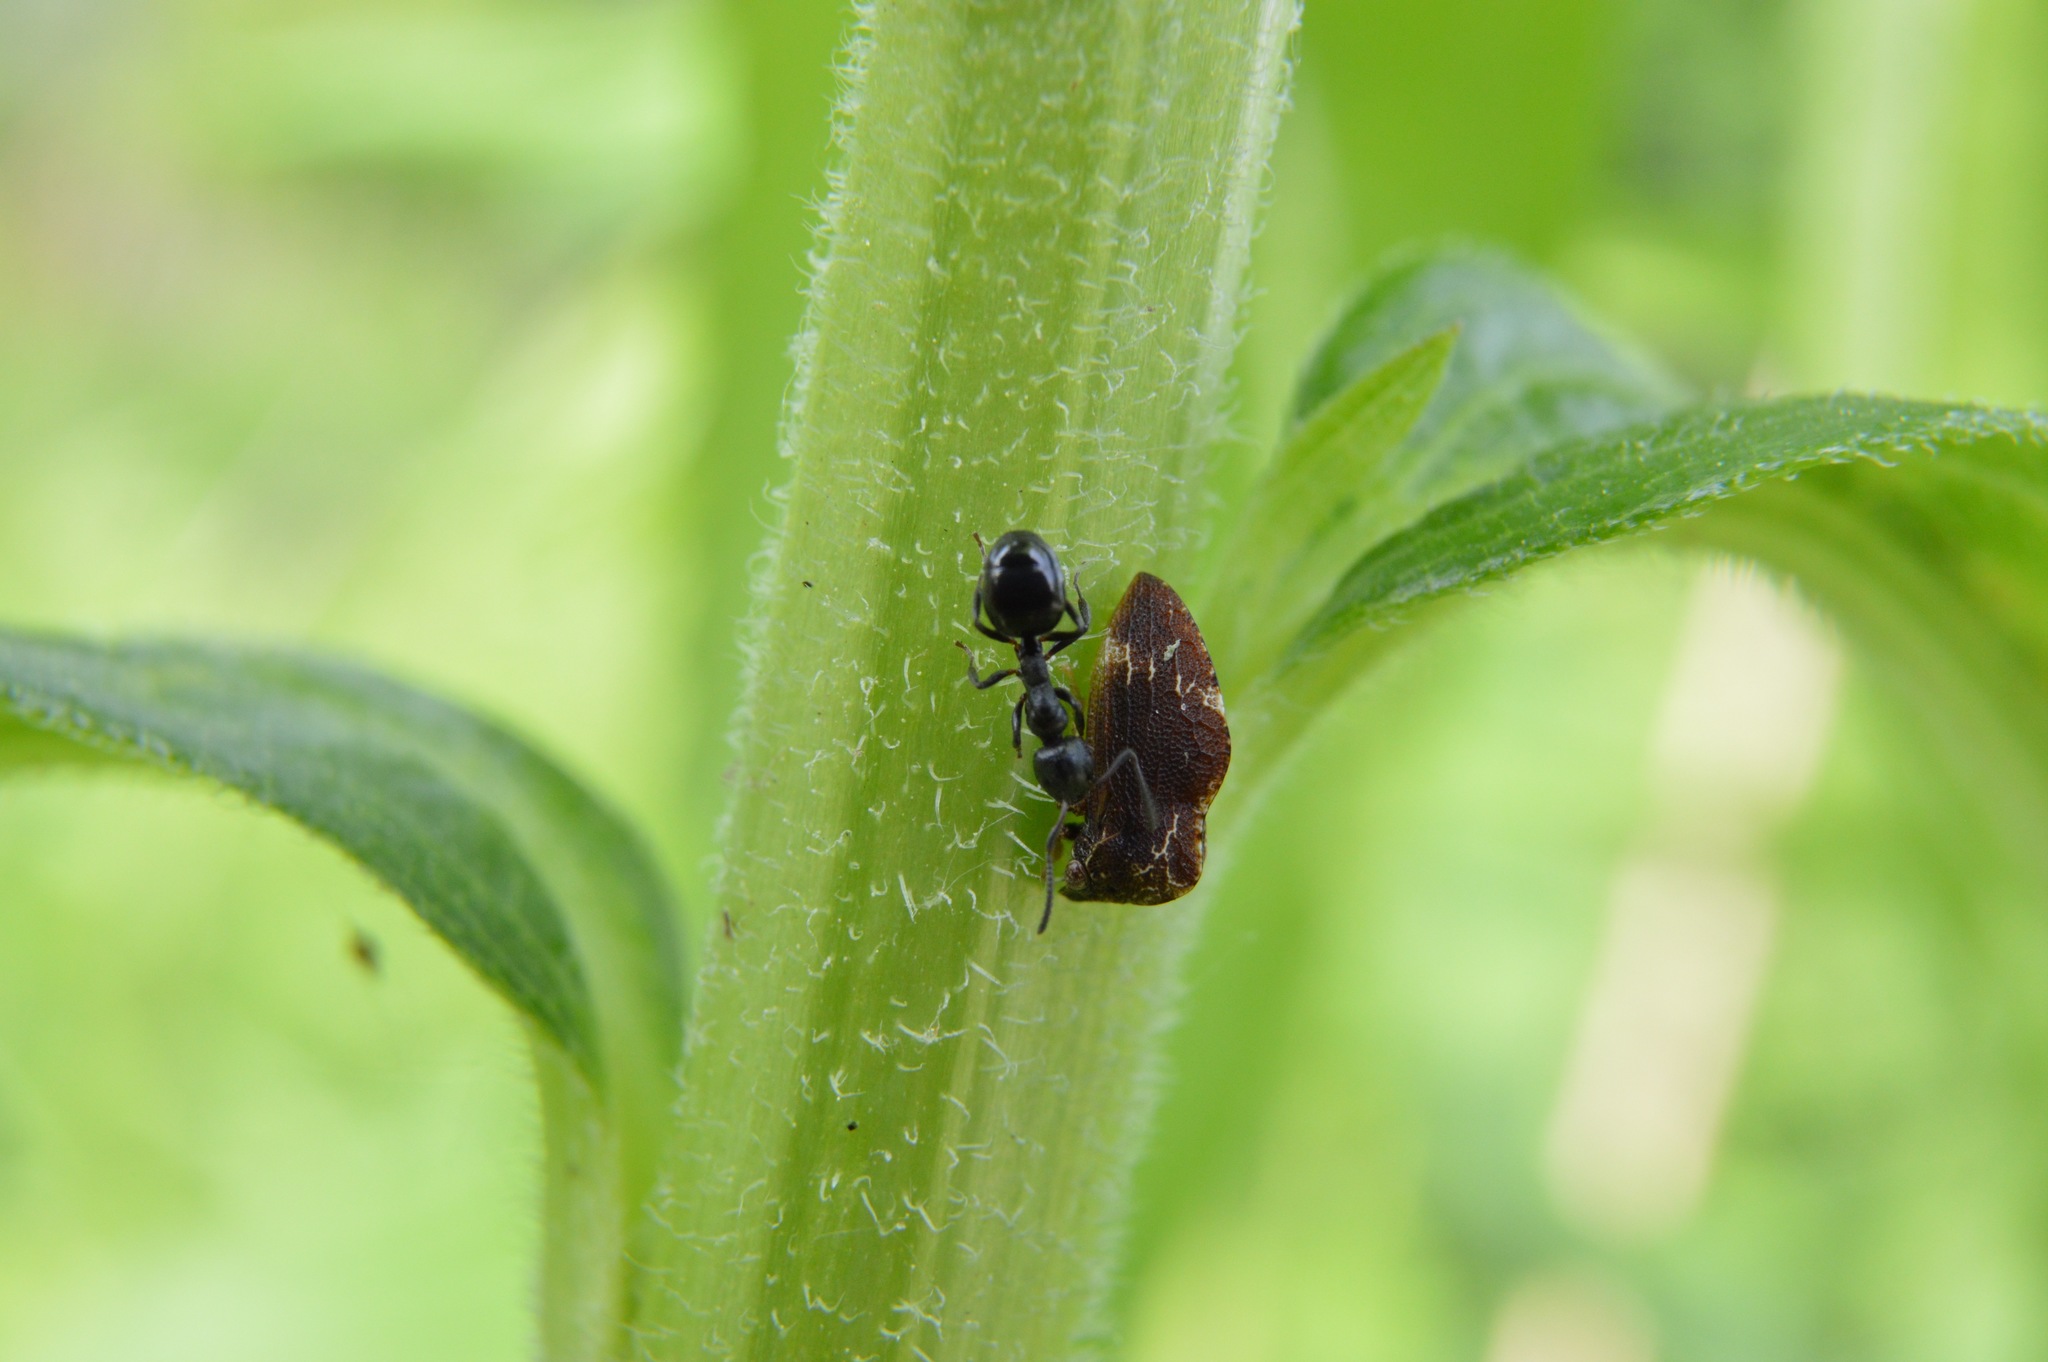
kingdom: Animalia
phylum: Arthropoda
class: Insecta
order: Hemiptera
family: Membracidae
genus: Publilia
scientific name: Publilia concava
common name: Aster treehopper
